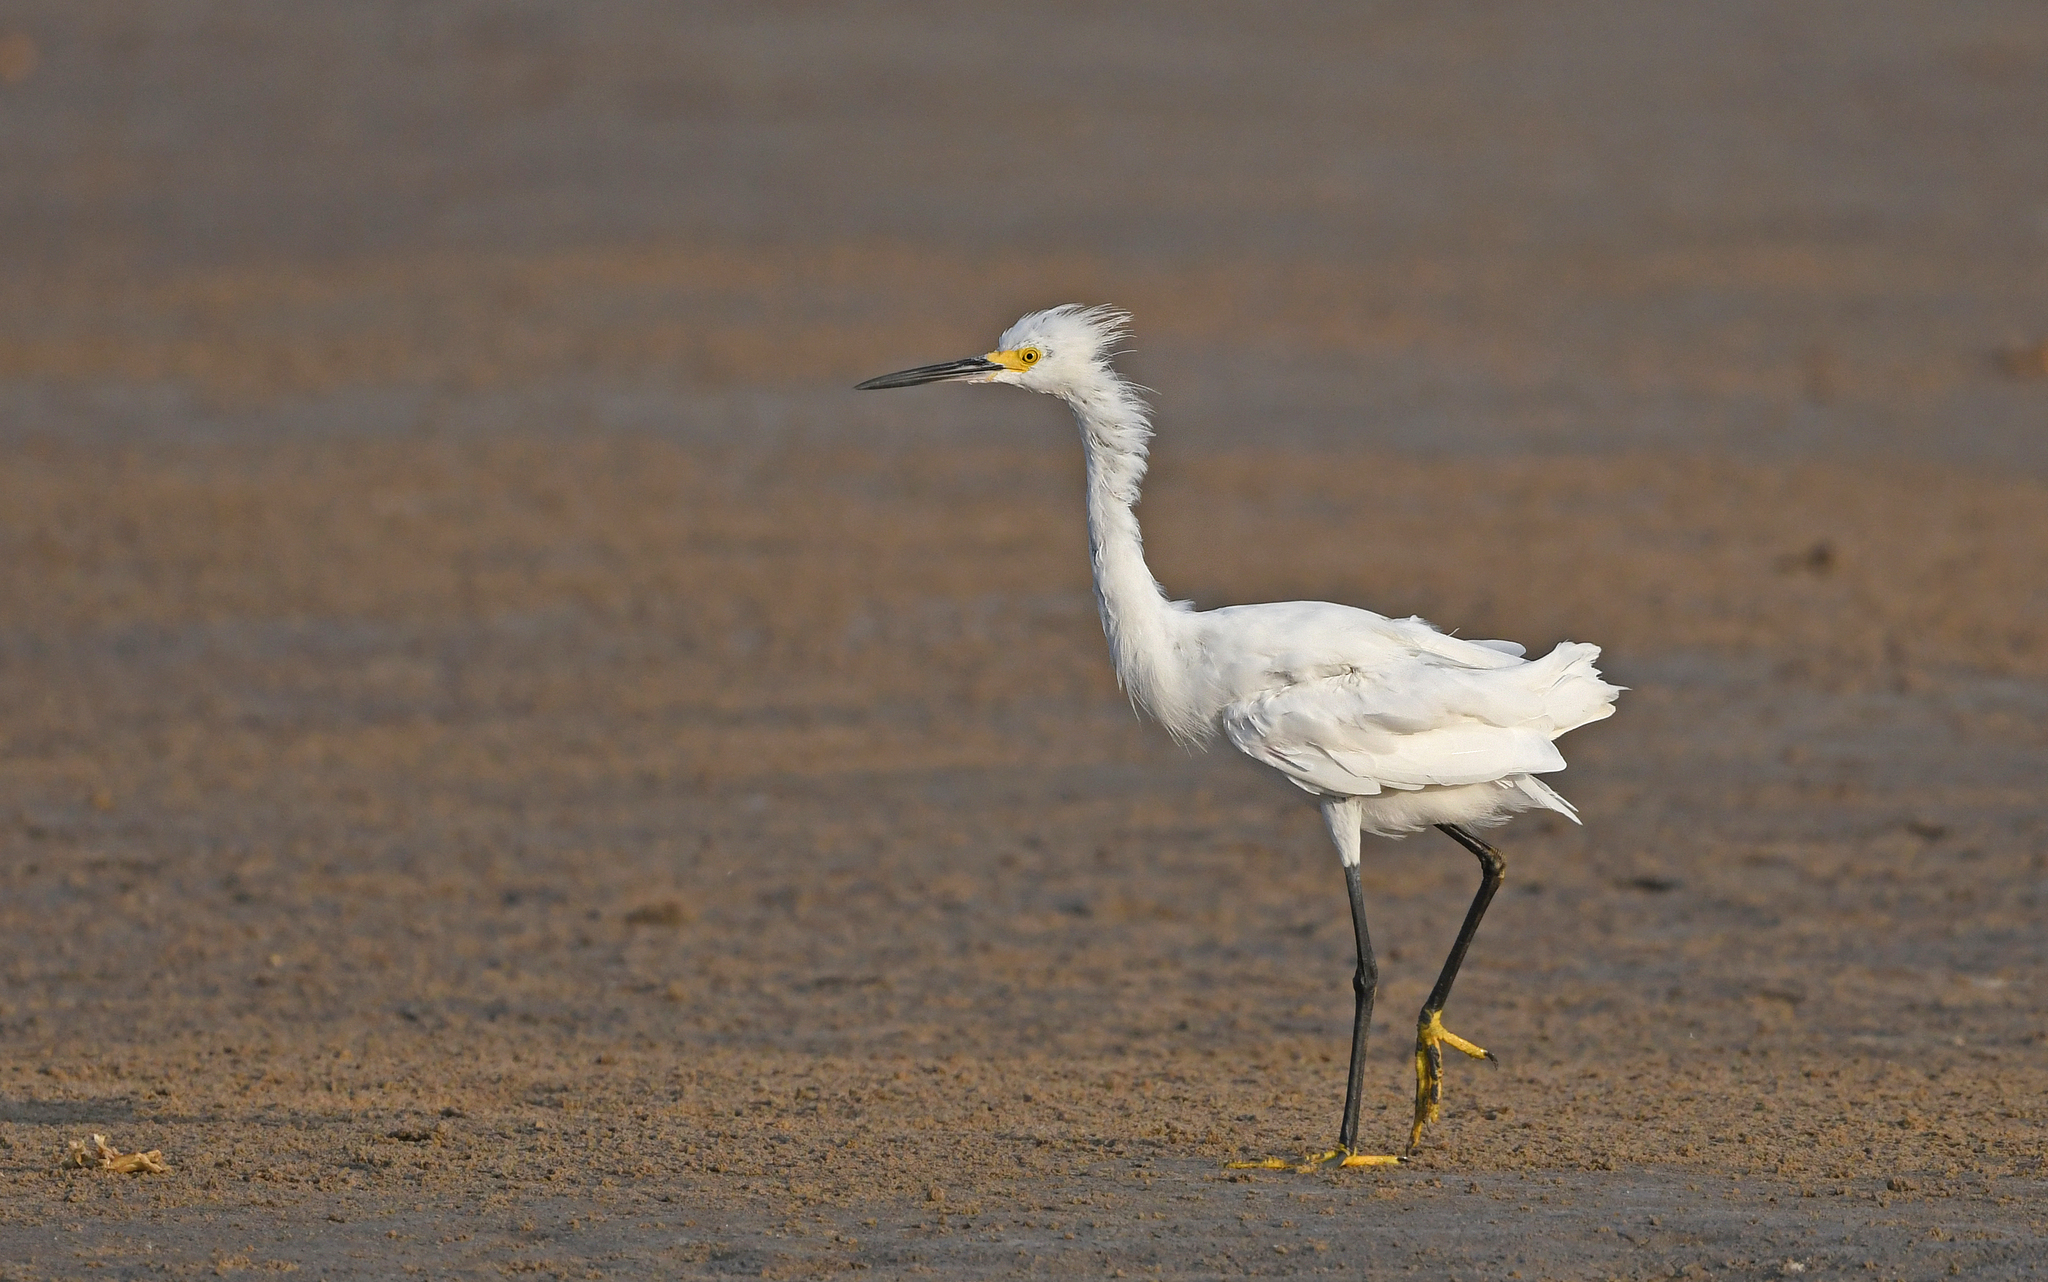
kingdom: Animalia
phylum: Chordata
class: Aves
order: Pelecaniformes
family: Ardeidae
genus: Egretta
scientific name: Egretta thula
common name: Snowy egret
